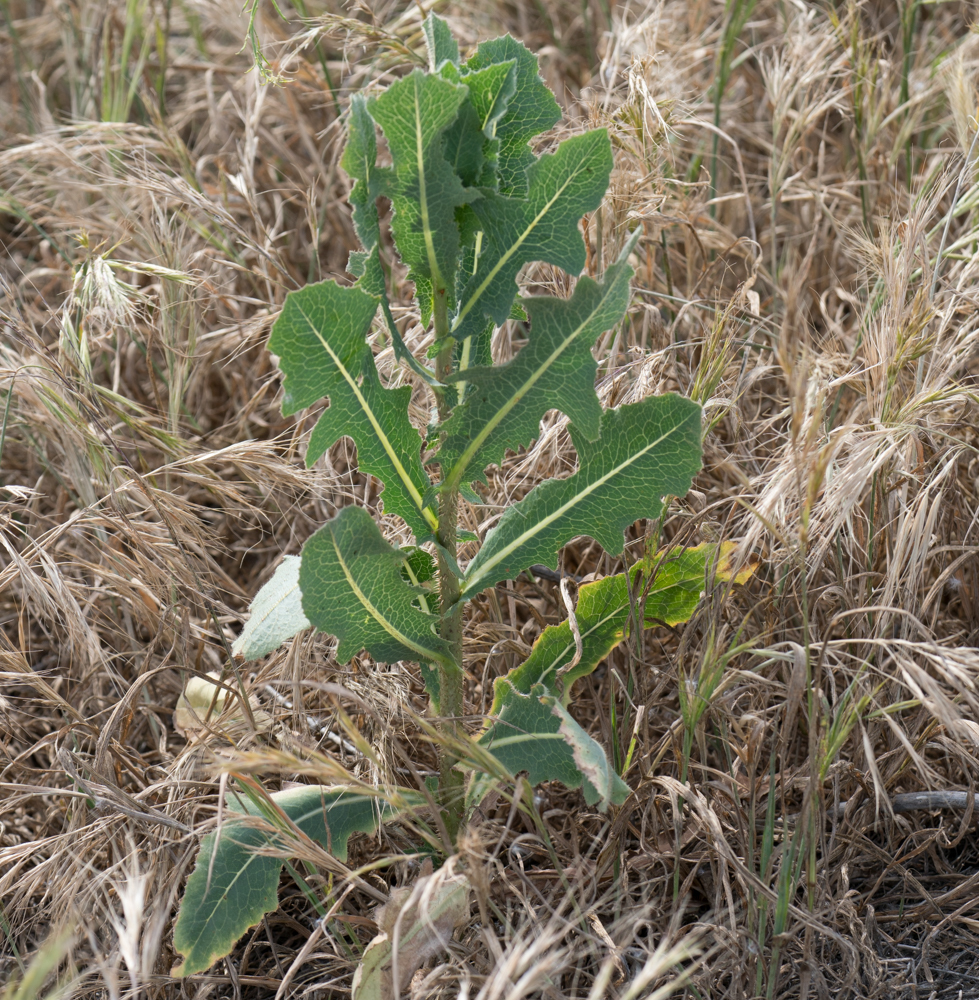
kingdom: Plantae
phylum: Tracheophyta
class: Magnoliopsida
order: Asterales
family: Asteraceae
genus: Lactuca
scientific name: Lactuca serriola
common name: Prickly lettuce
